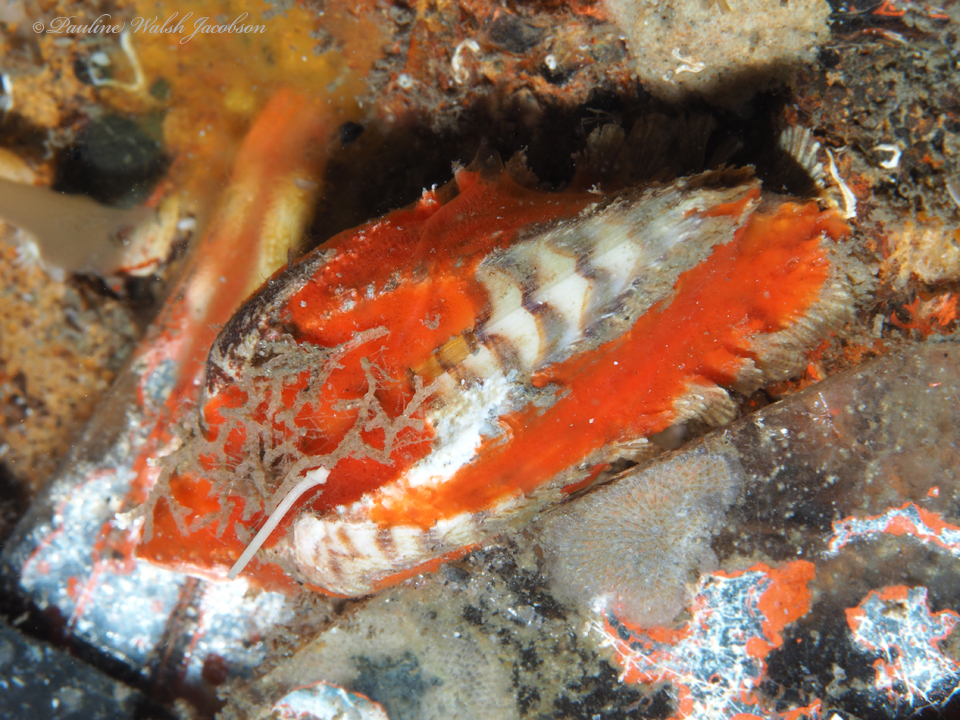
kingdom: Animalia
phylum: Mollusca
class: Bivalvia
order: Arcida
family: Arcidae
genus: Arca
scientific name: Arca zebra
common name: Atlantic turkey wing
